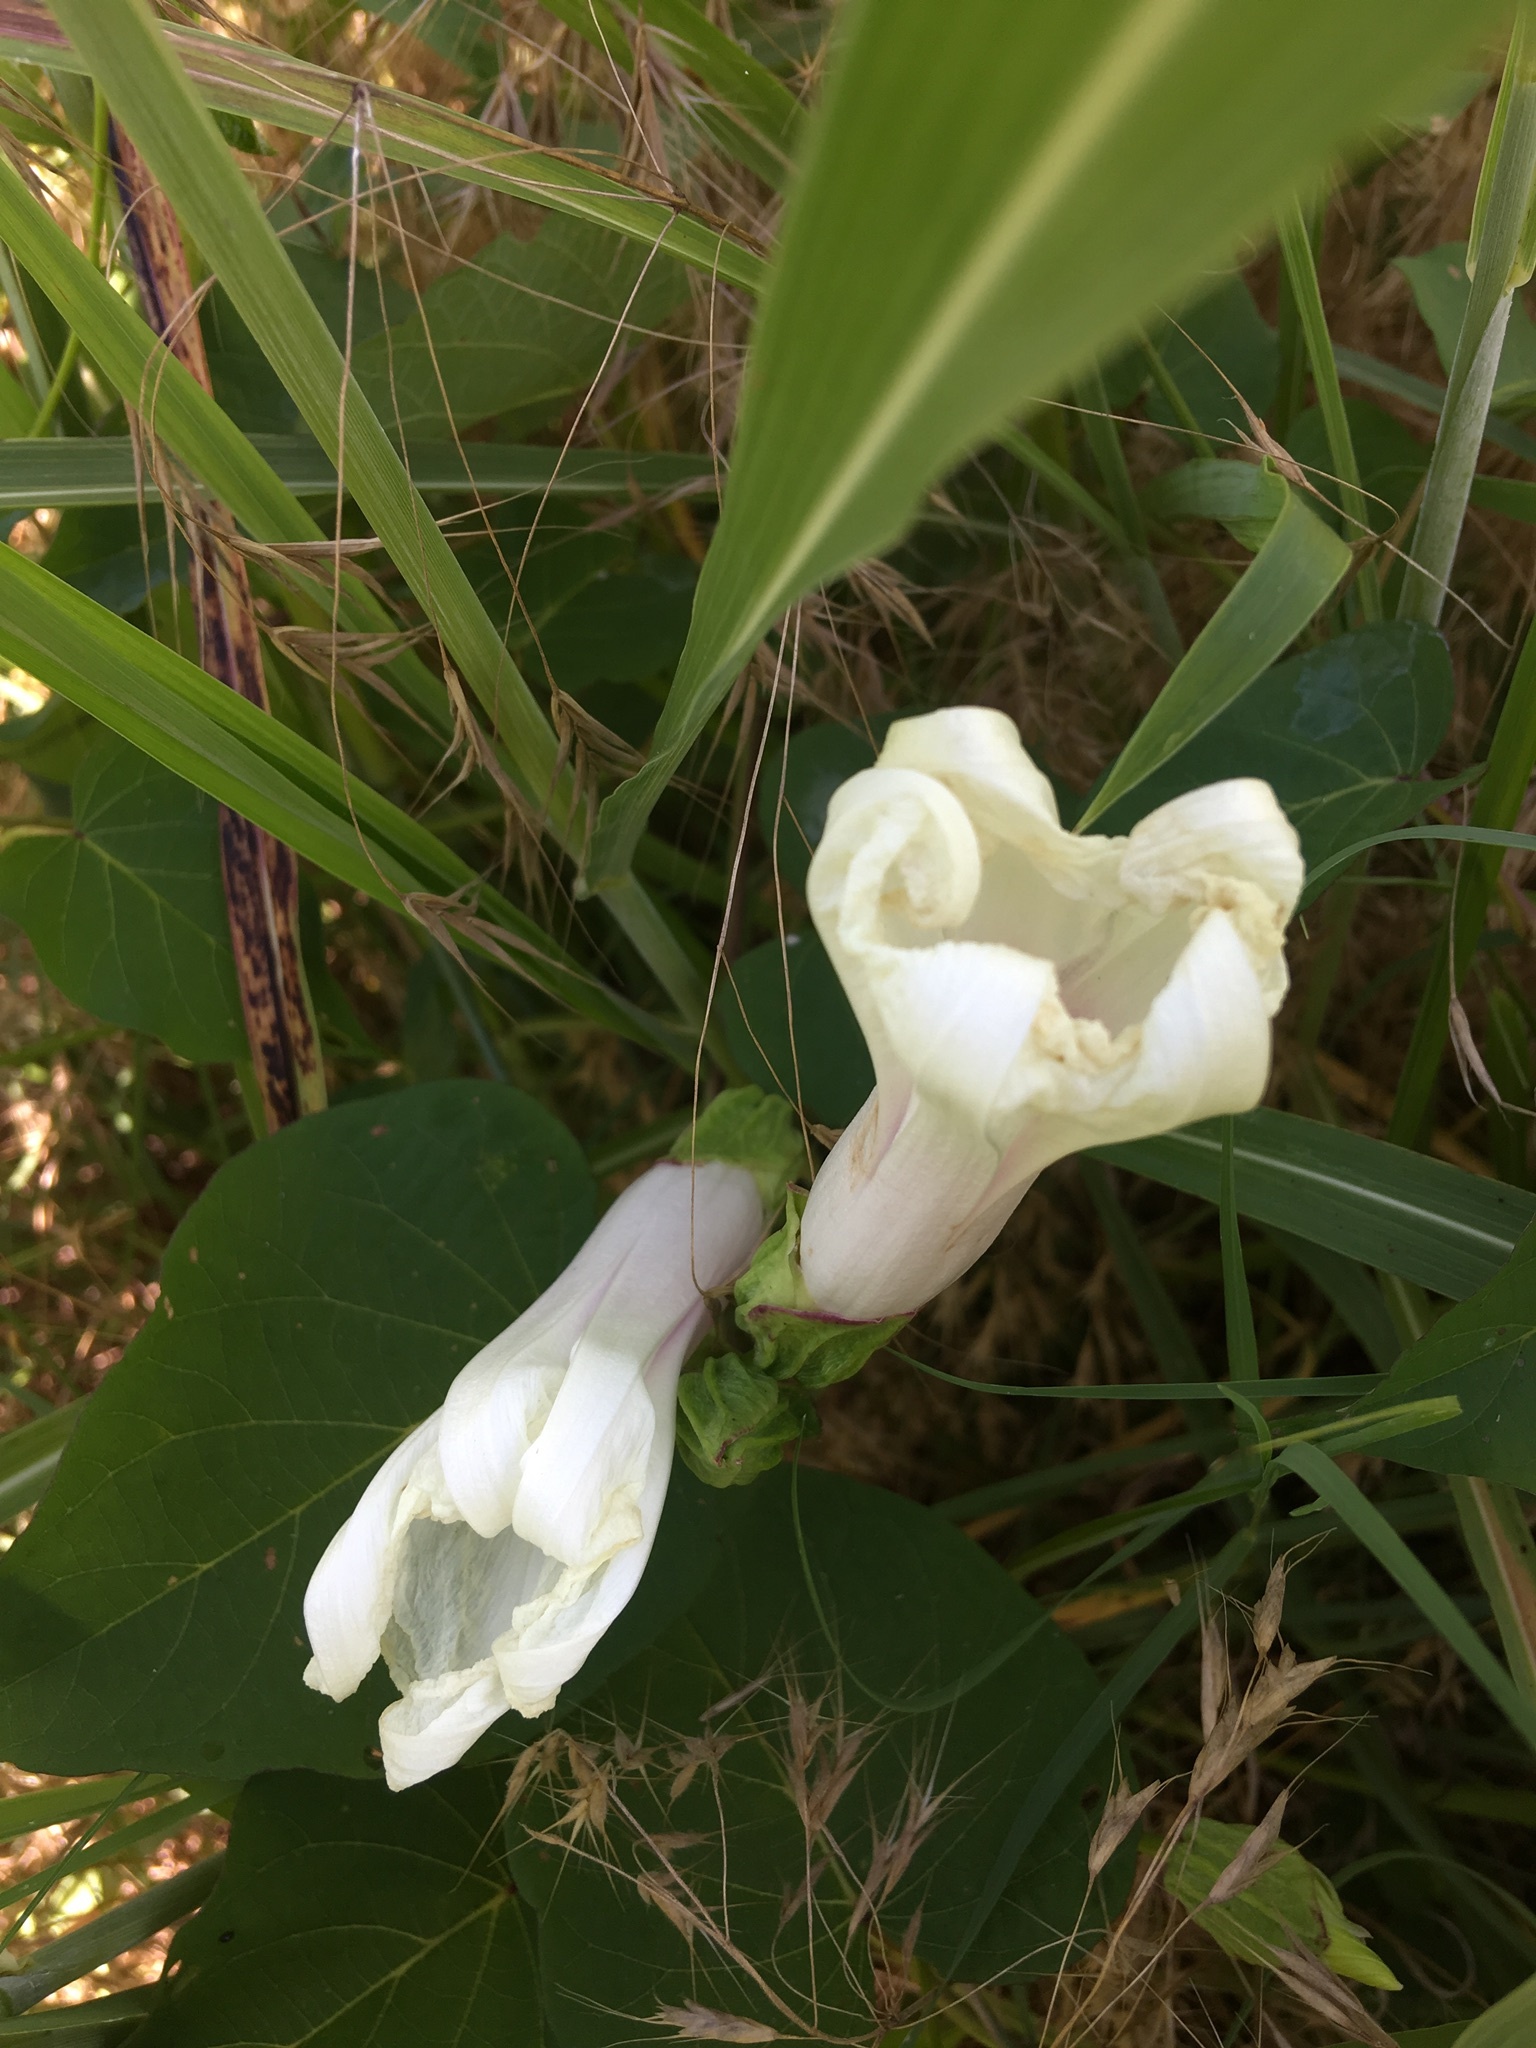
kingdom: Plantae
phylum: Tracheophyta
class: Magnoliopsida
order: Solanales
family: Convolvulaceae
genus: Ipomoea
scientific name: Ipomoea pandurata
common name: Man-of-the-earth
